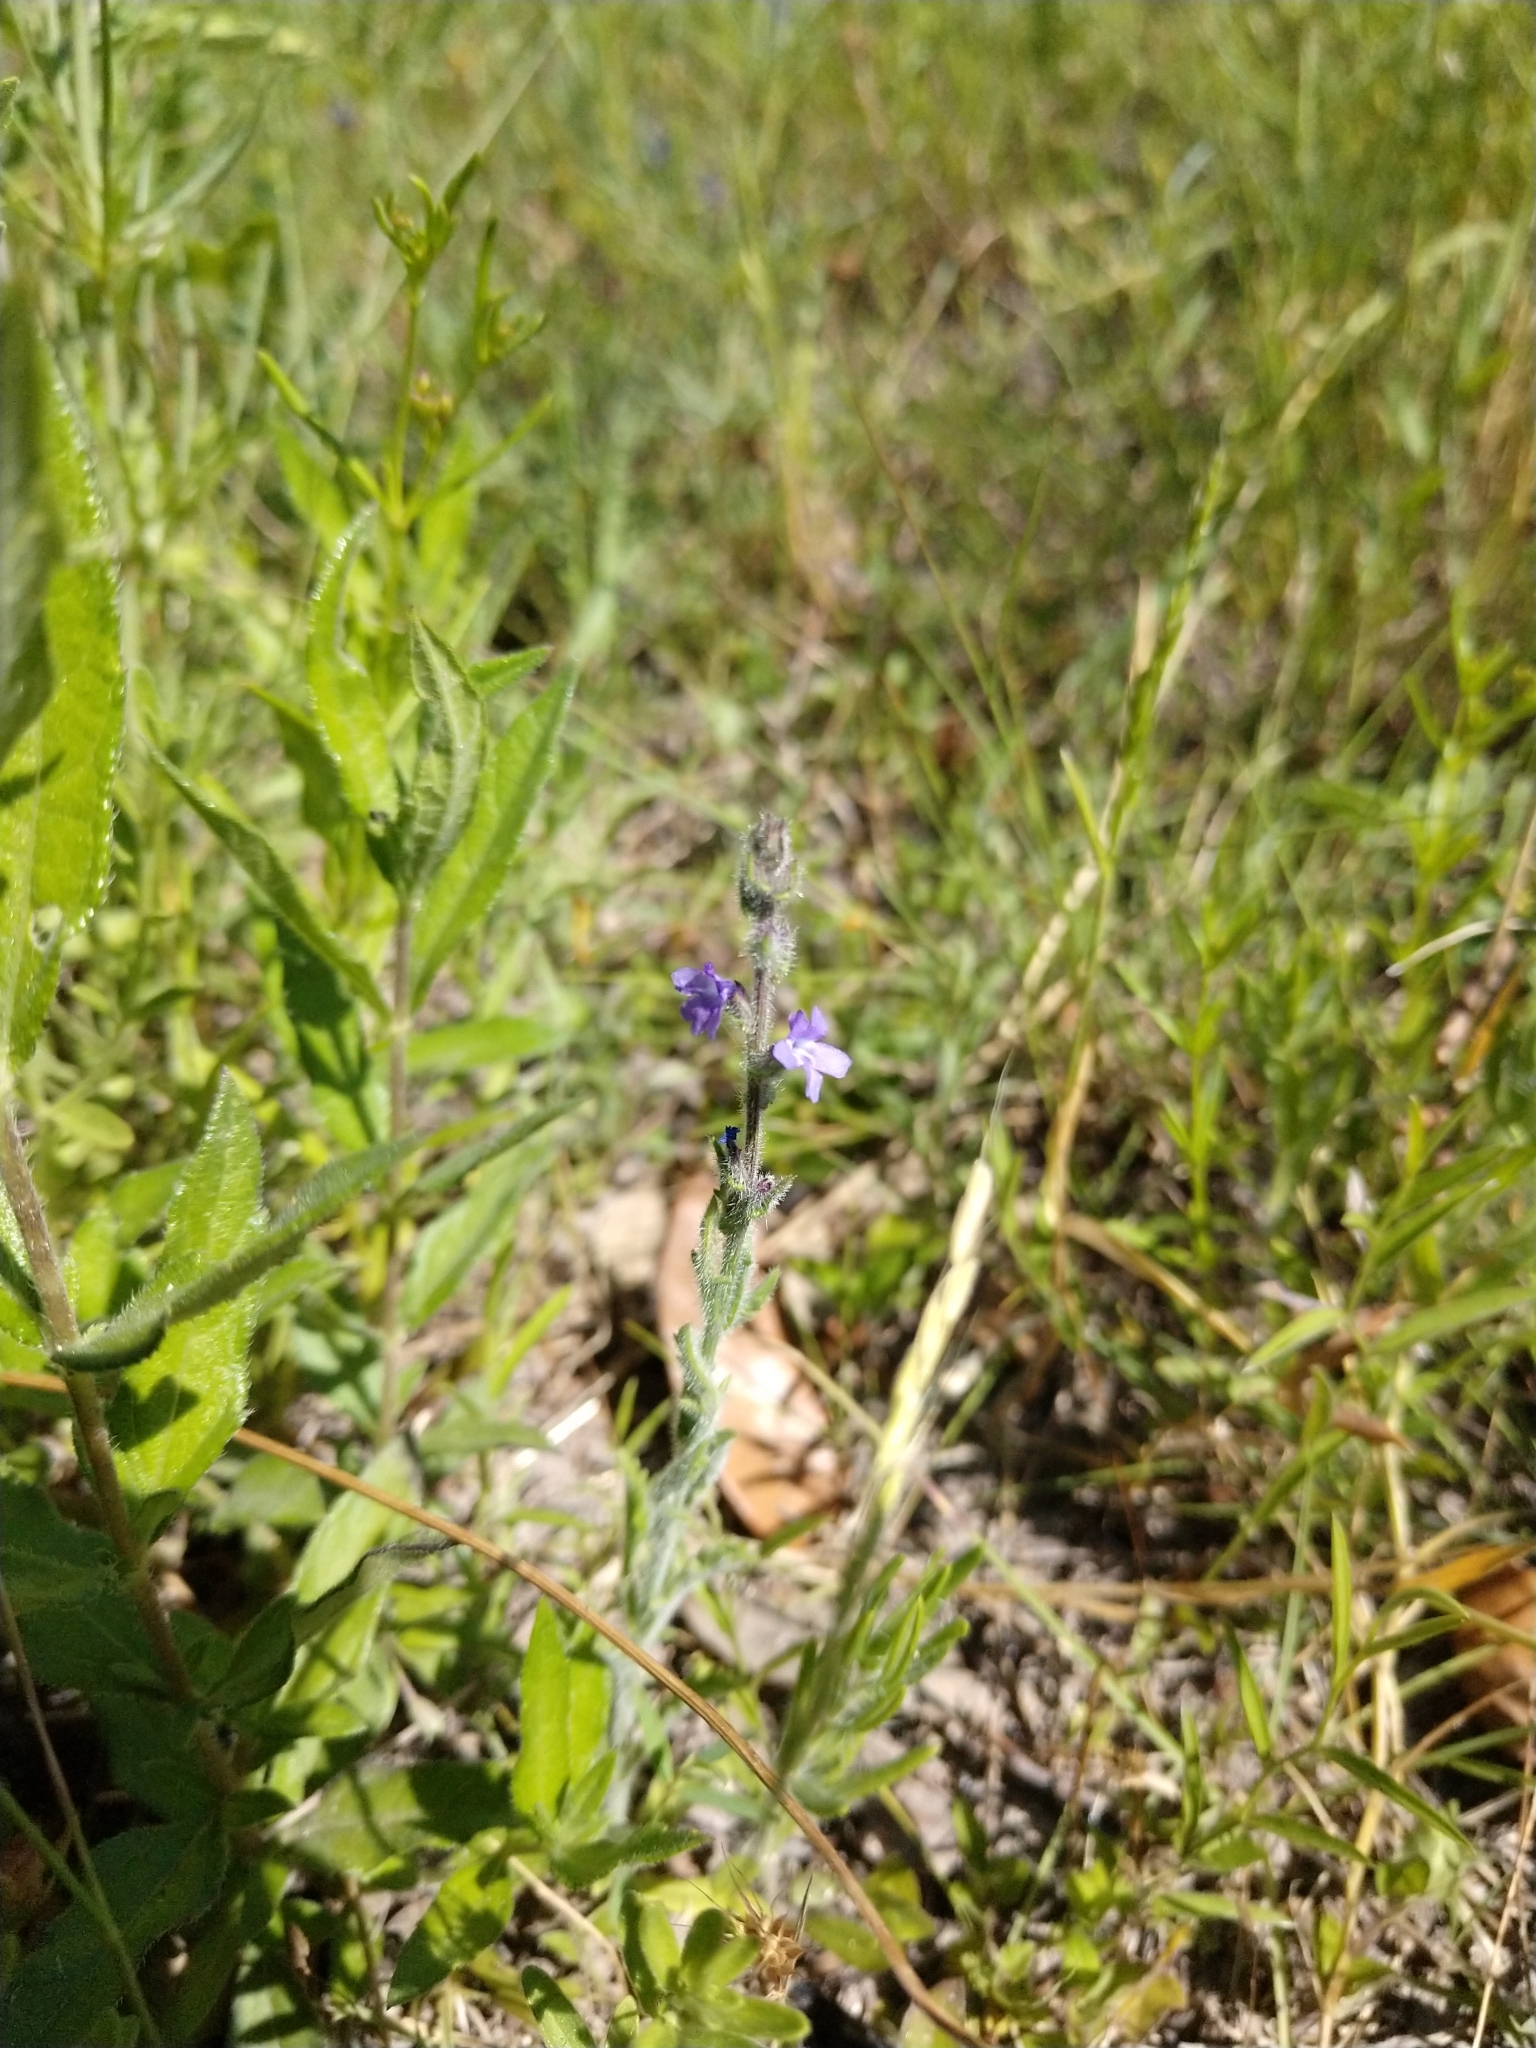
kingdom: Plantae
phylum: Tracheophyta
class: Magnoliopsida
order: Lamiales
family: Verbenaceae
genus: Verbena
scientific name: Verbena canescens
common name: Gray vervain
